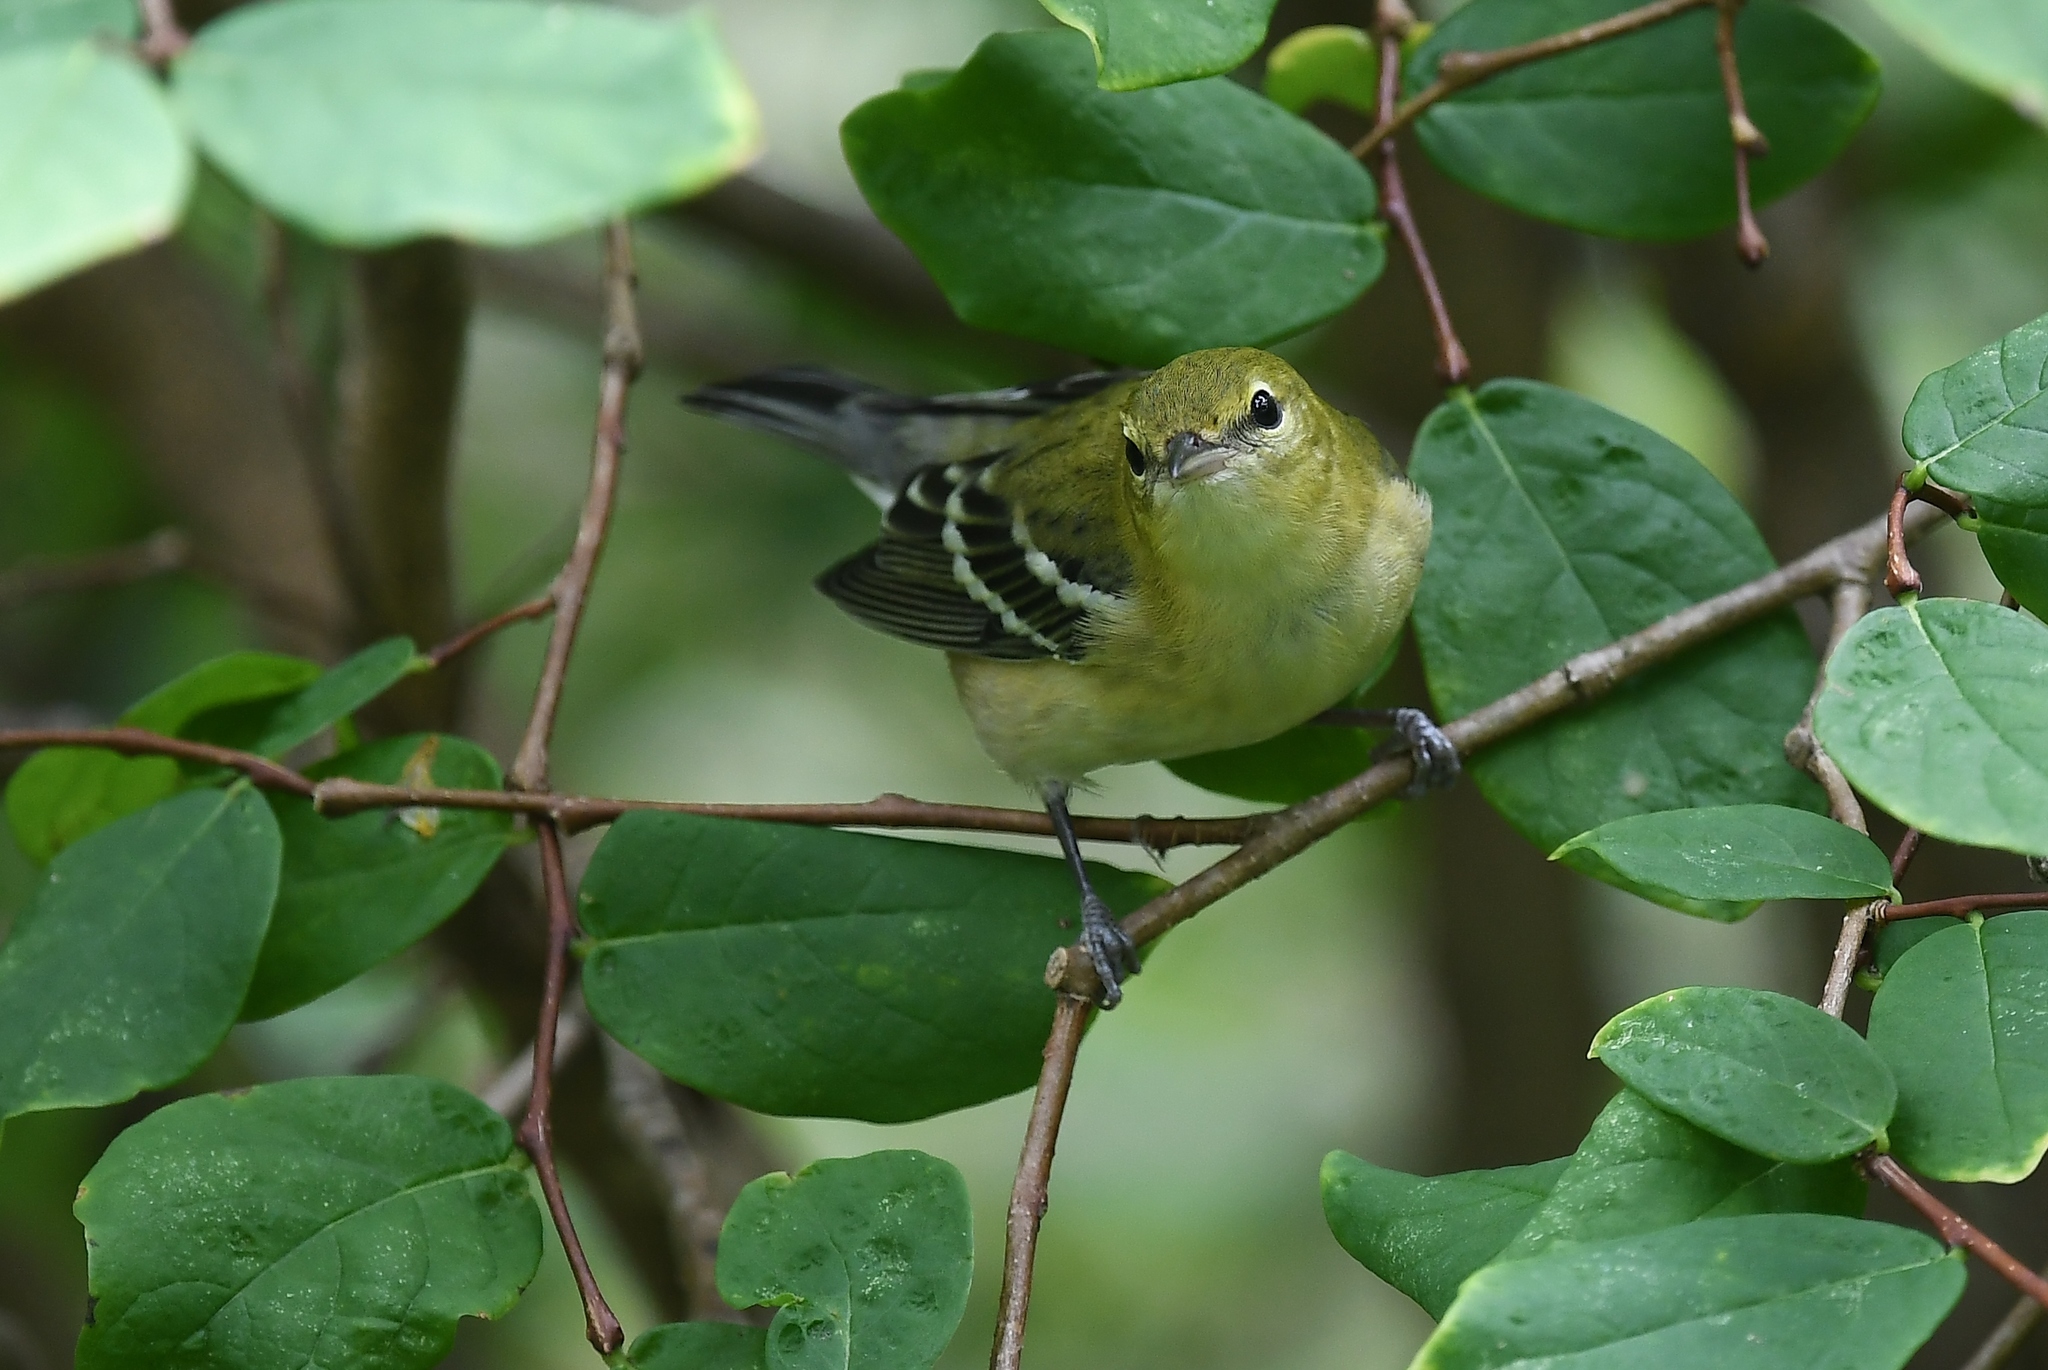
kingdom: Animalia
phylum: Chordata
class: Aves
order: Passeriformes
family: Parulidae
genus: Setophaga
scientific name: Setophaga castanea
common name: Bay-breasted warbler
